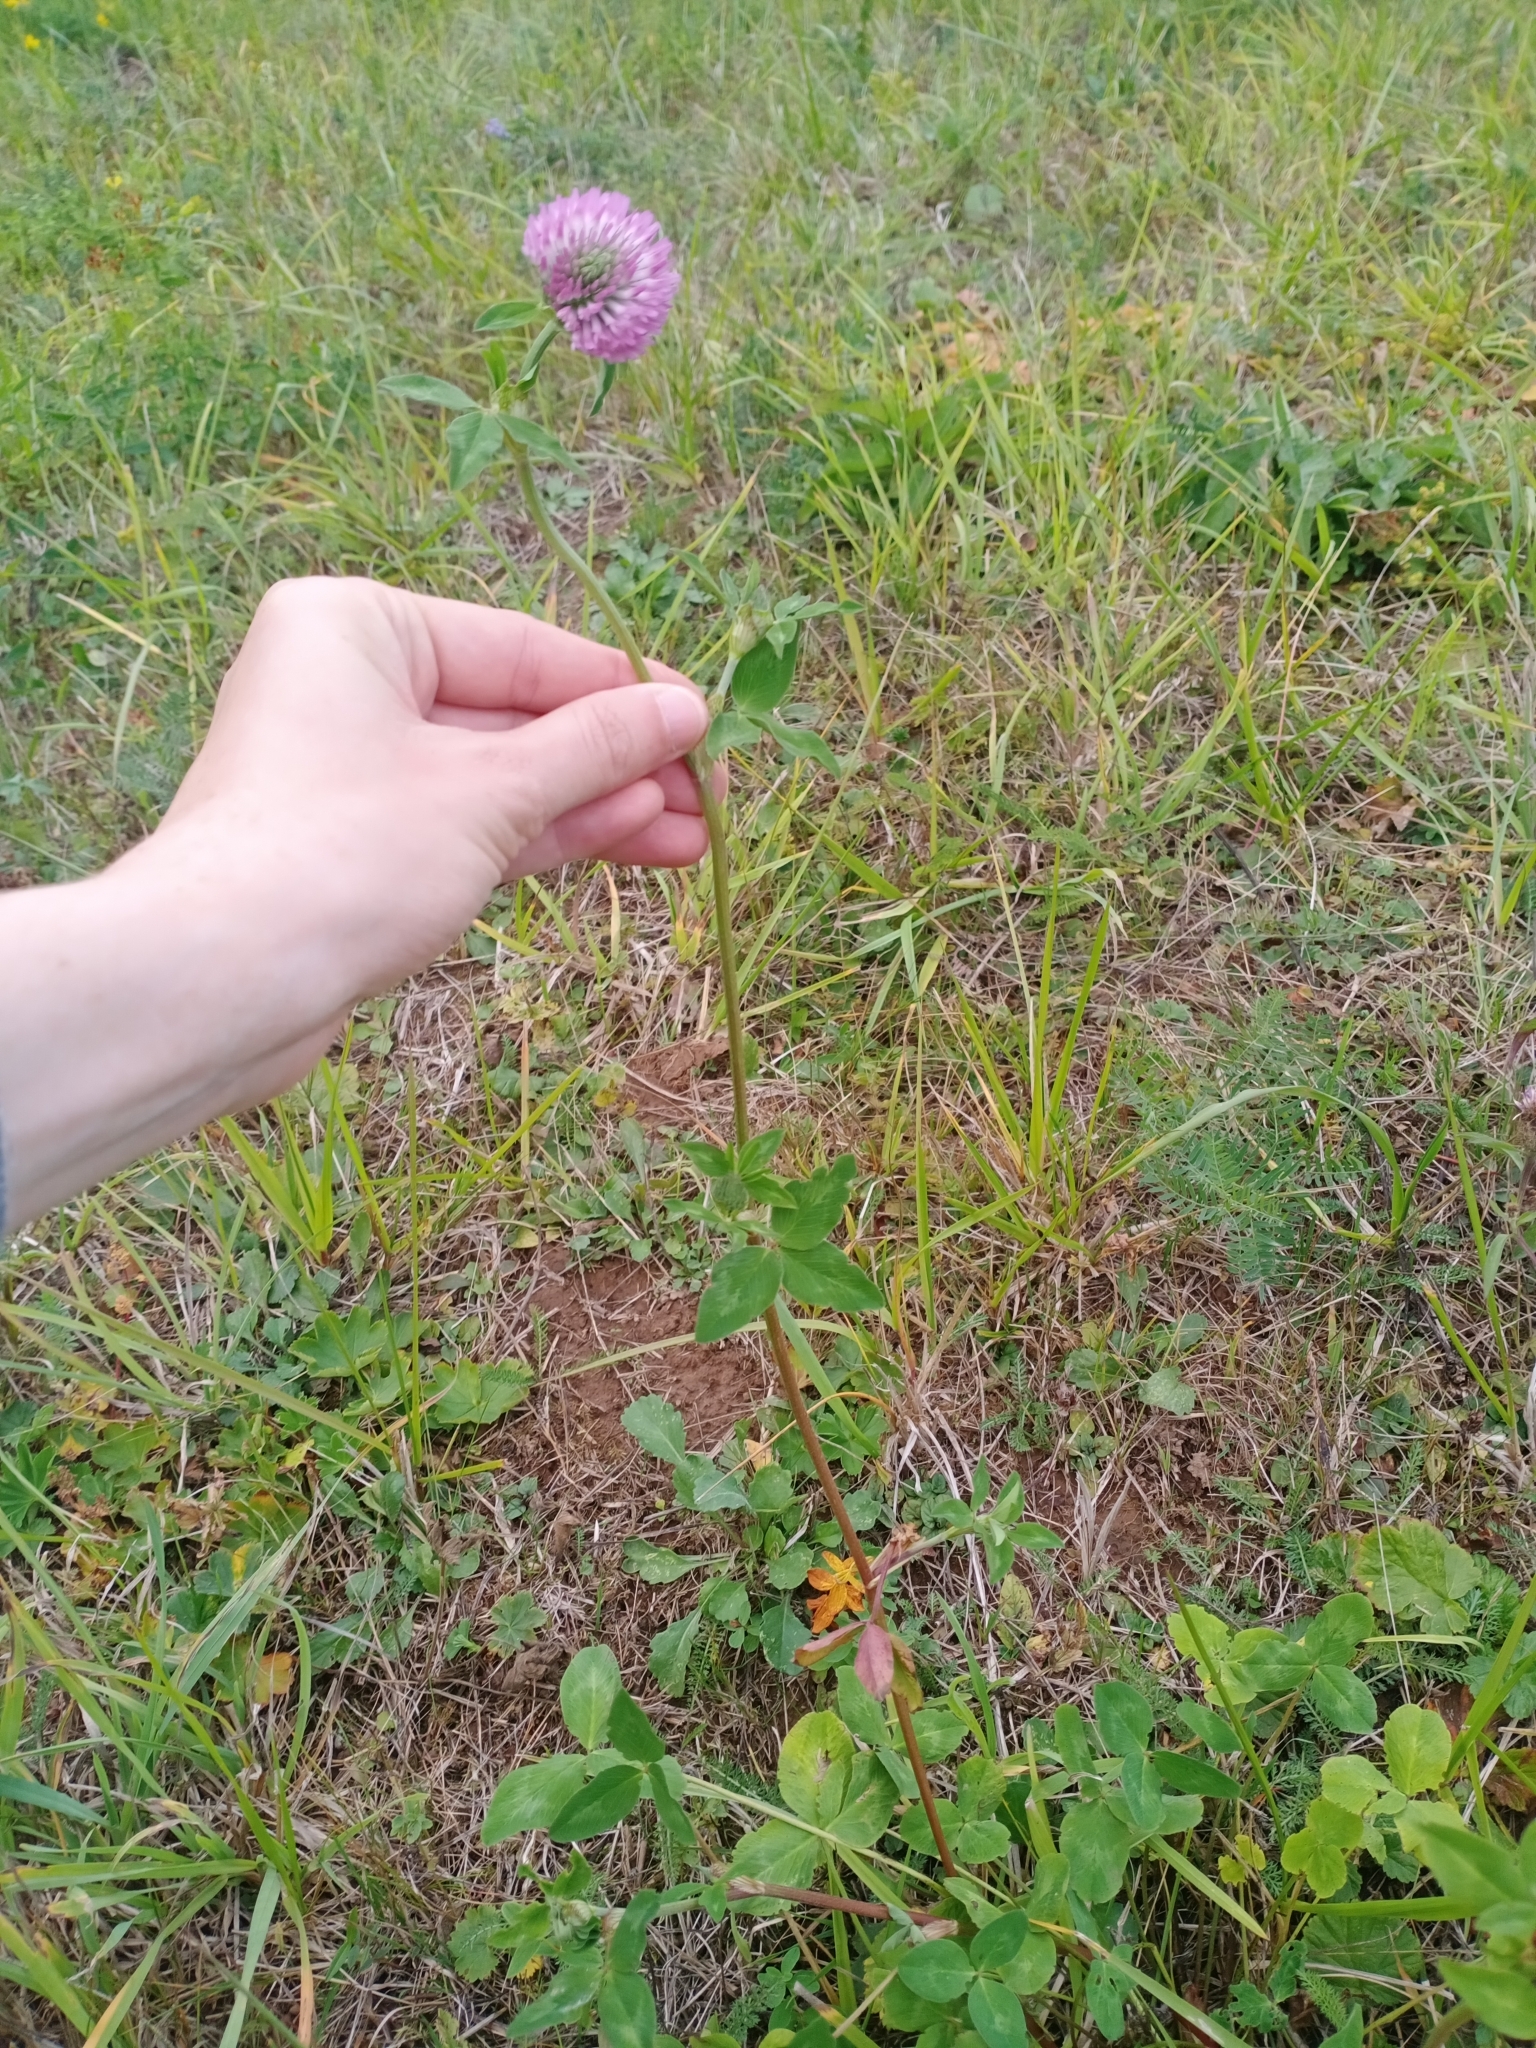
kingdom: Plantae
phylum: Tracheophyta
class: Magnoliopsida
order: Fabales
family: Fabaceae
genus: Trifolium
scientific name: Trifolium pratense
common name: Red clover
